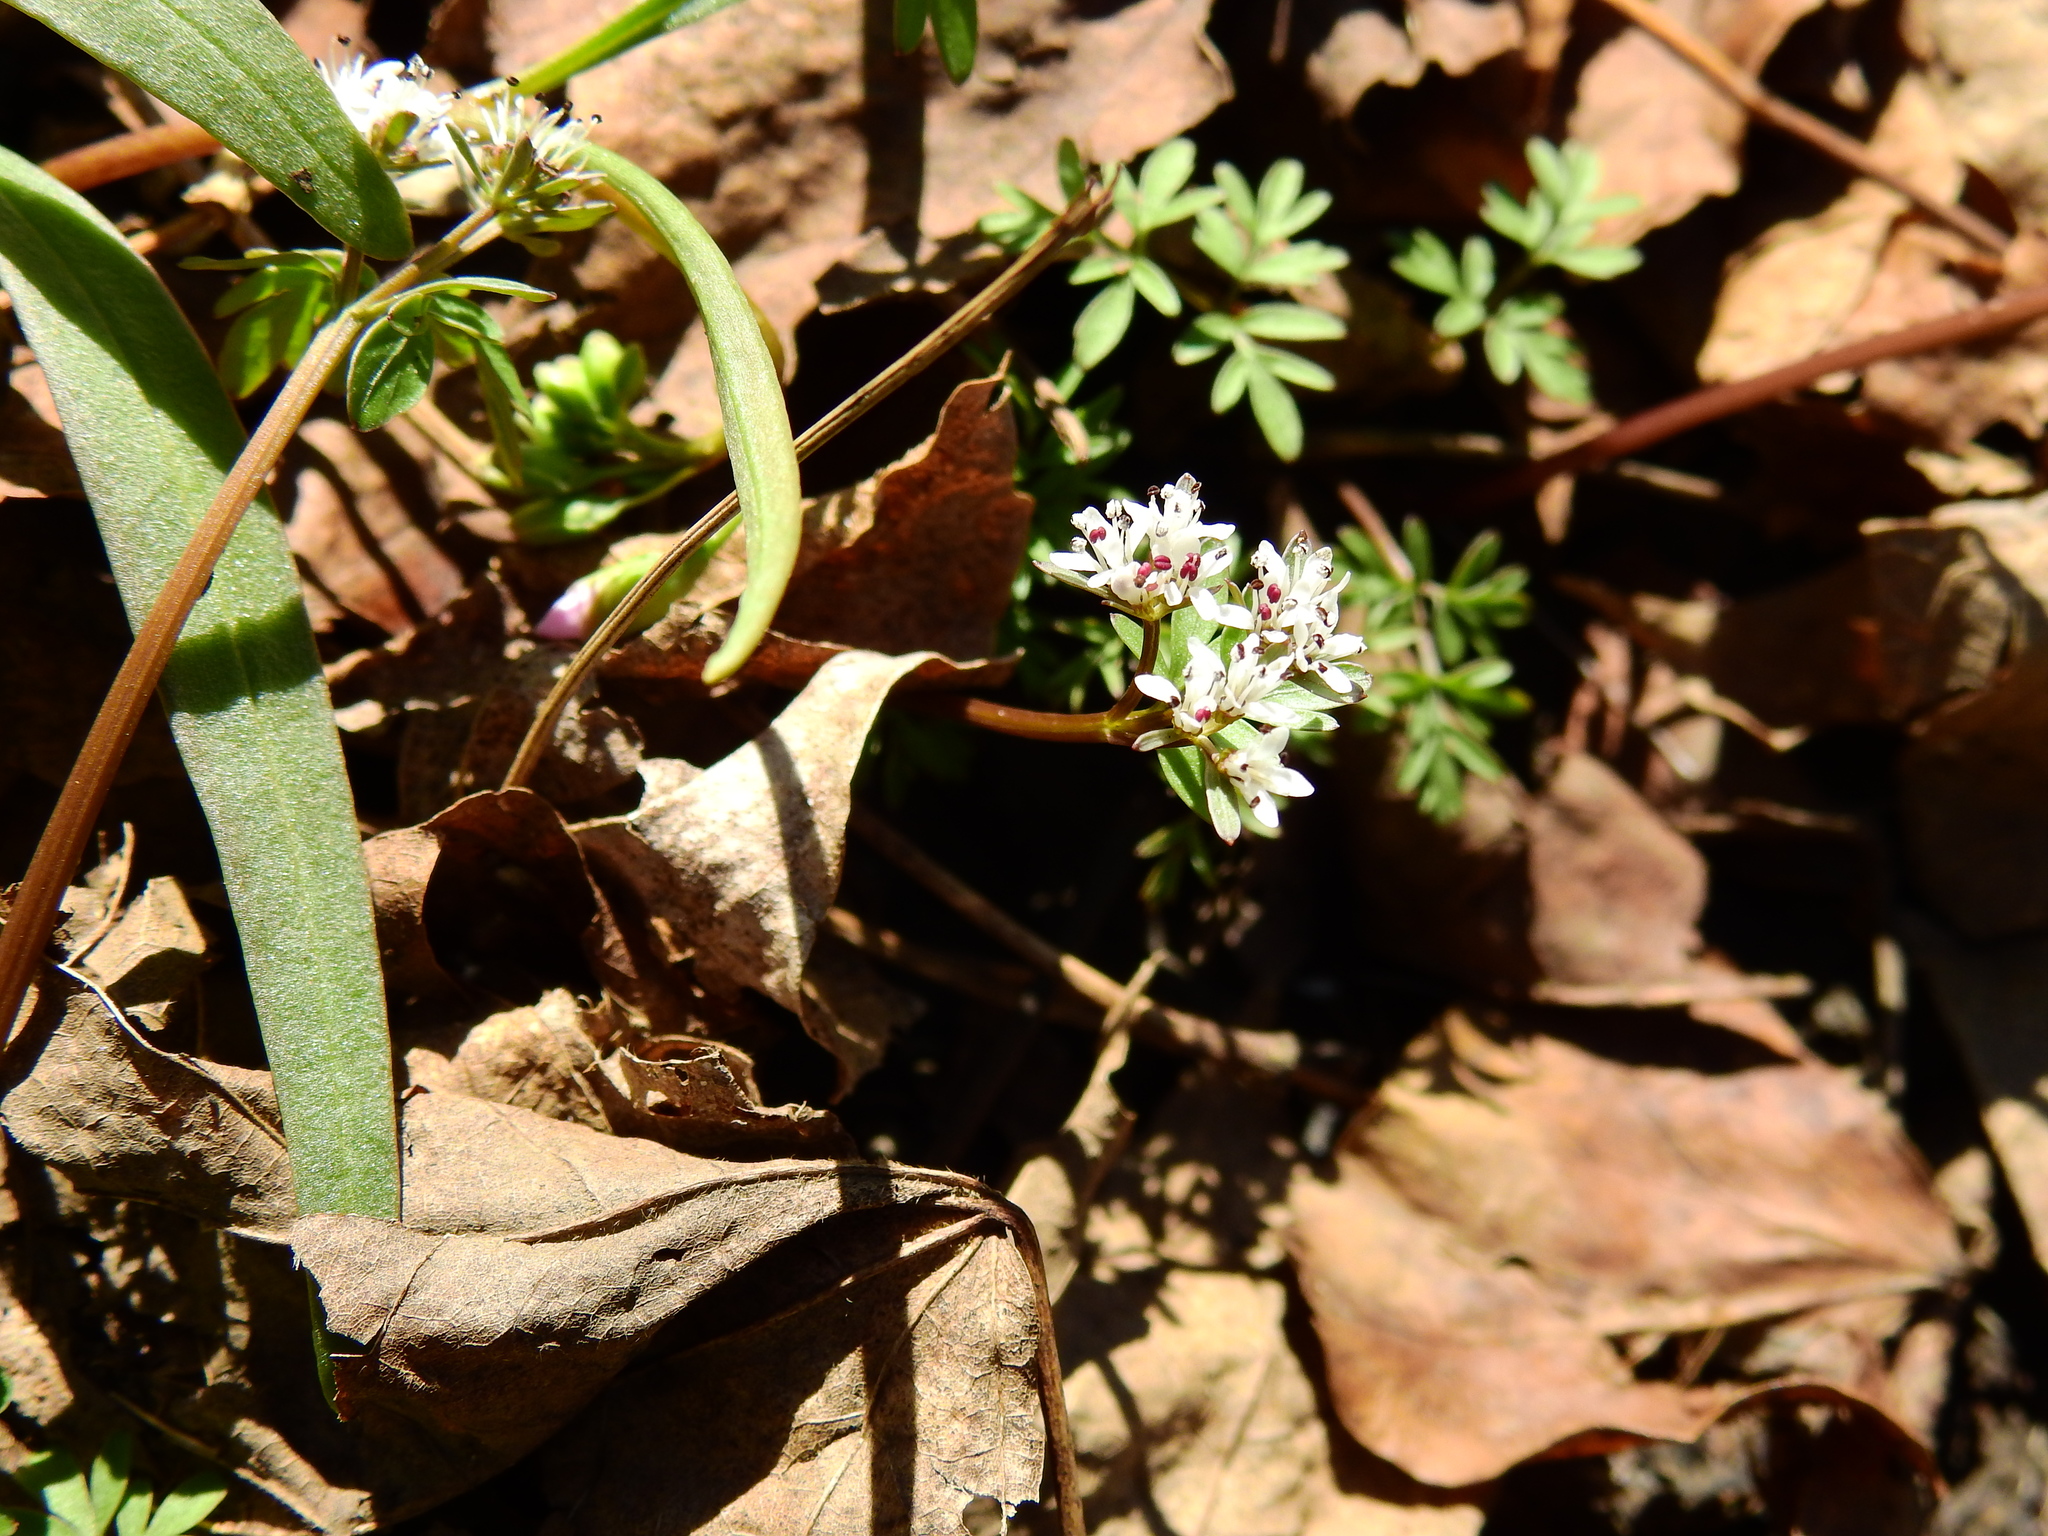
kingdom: Plantae
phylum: Tracheophyta
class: Magnoliopsida
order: Apiales
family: Apiaceae
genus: Erigenia
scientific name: Erigenia bulbosa
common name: Pepper-and-salt
